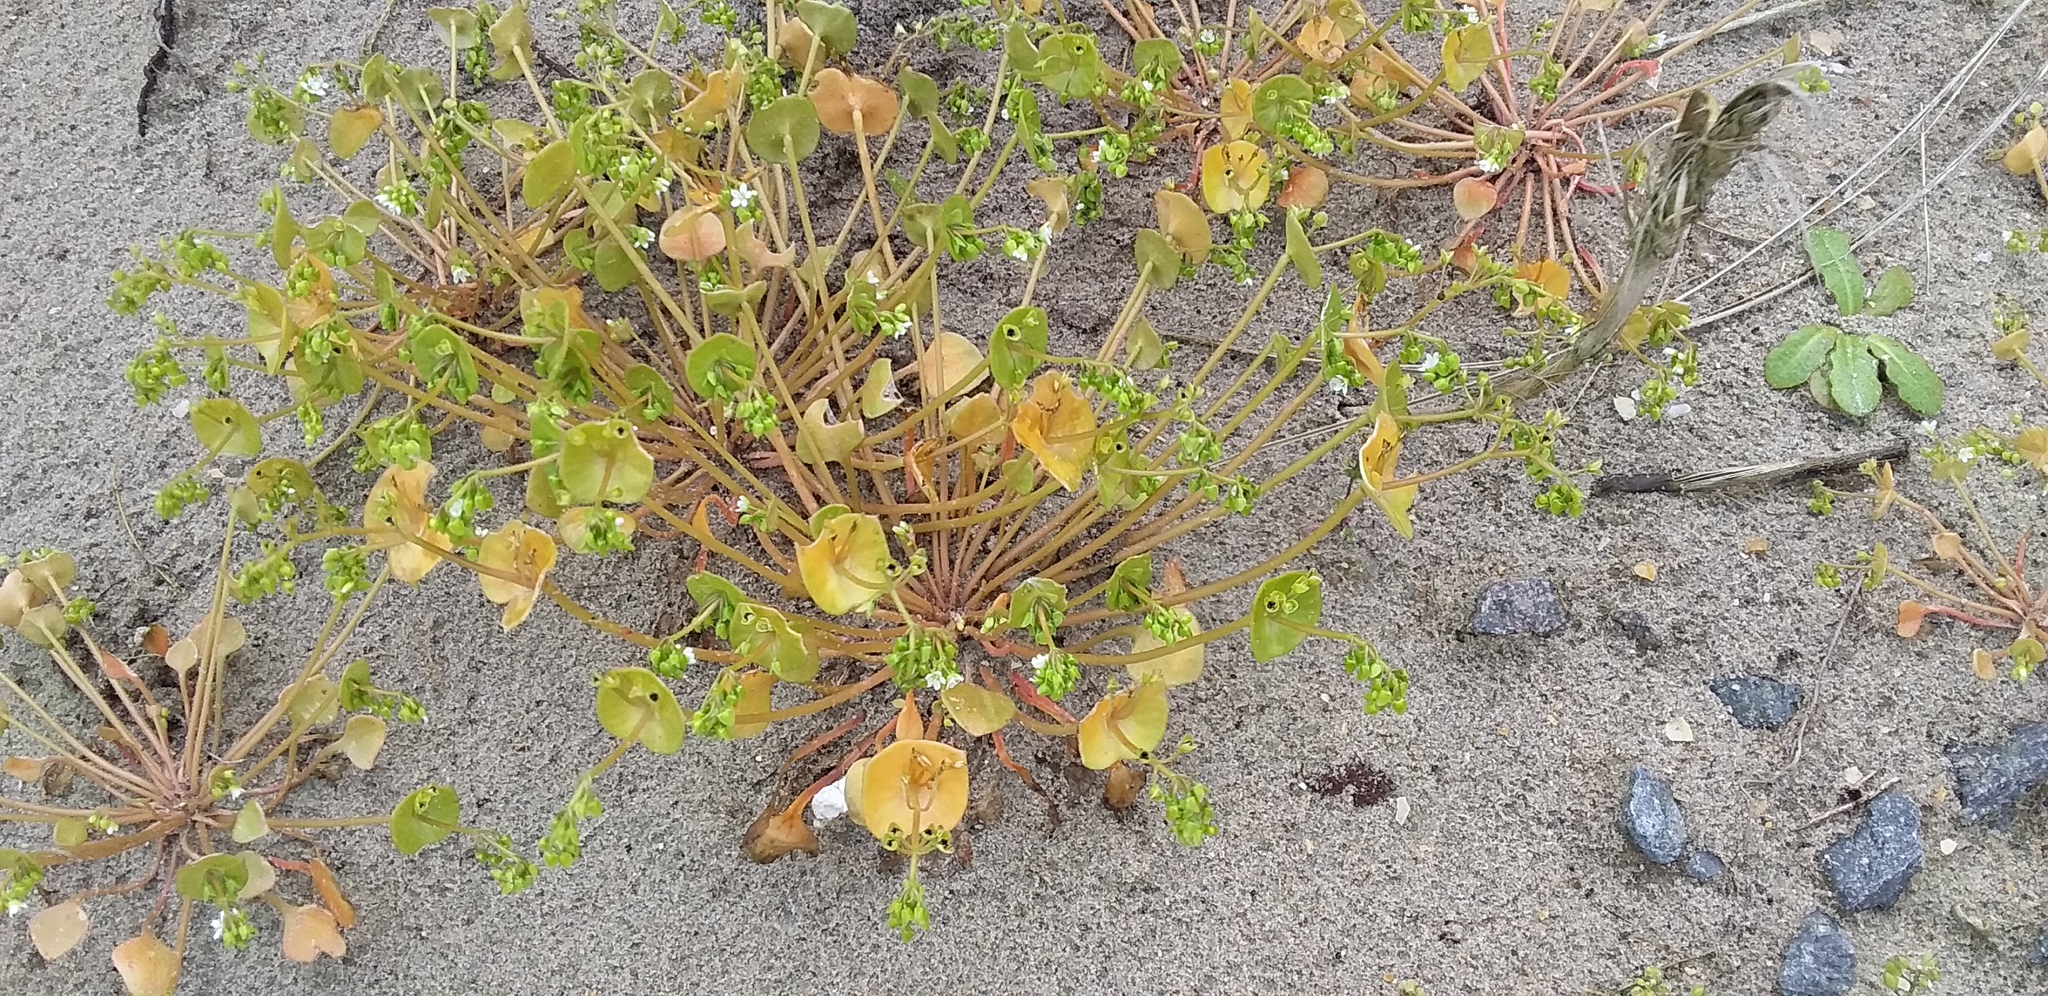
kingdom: Plantae
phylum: Tracheophyta
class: Magnoliopsida
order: Caryophyllales
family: Montiaceae
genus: Claytonia
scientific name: Claytonia perfoliata
